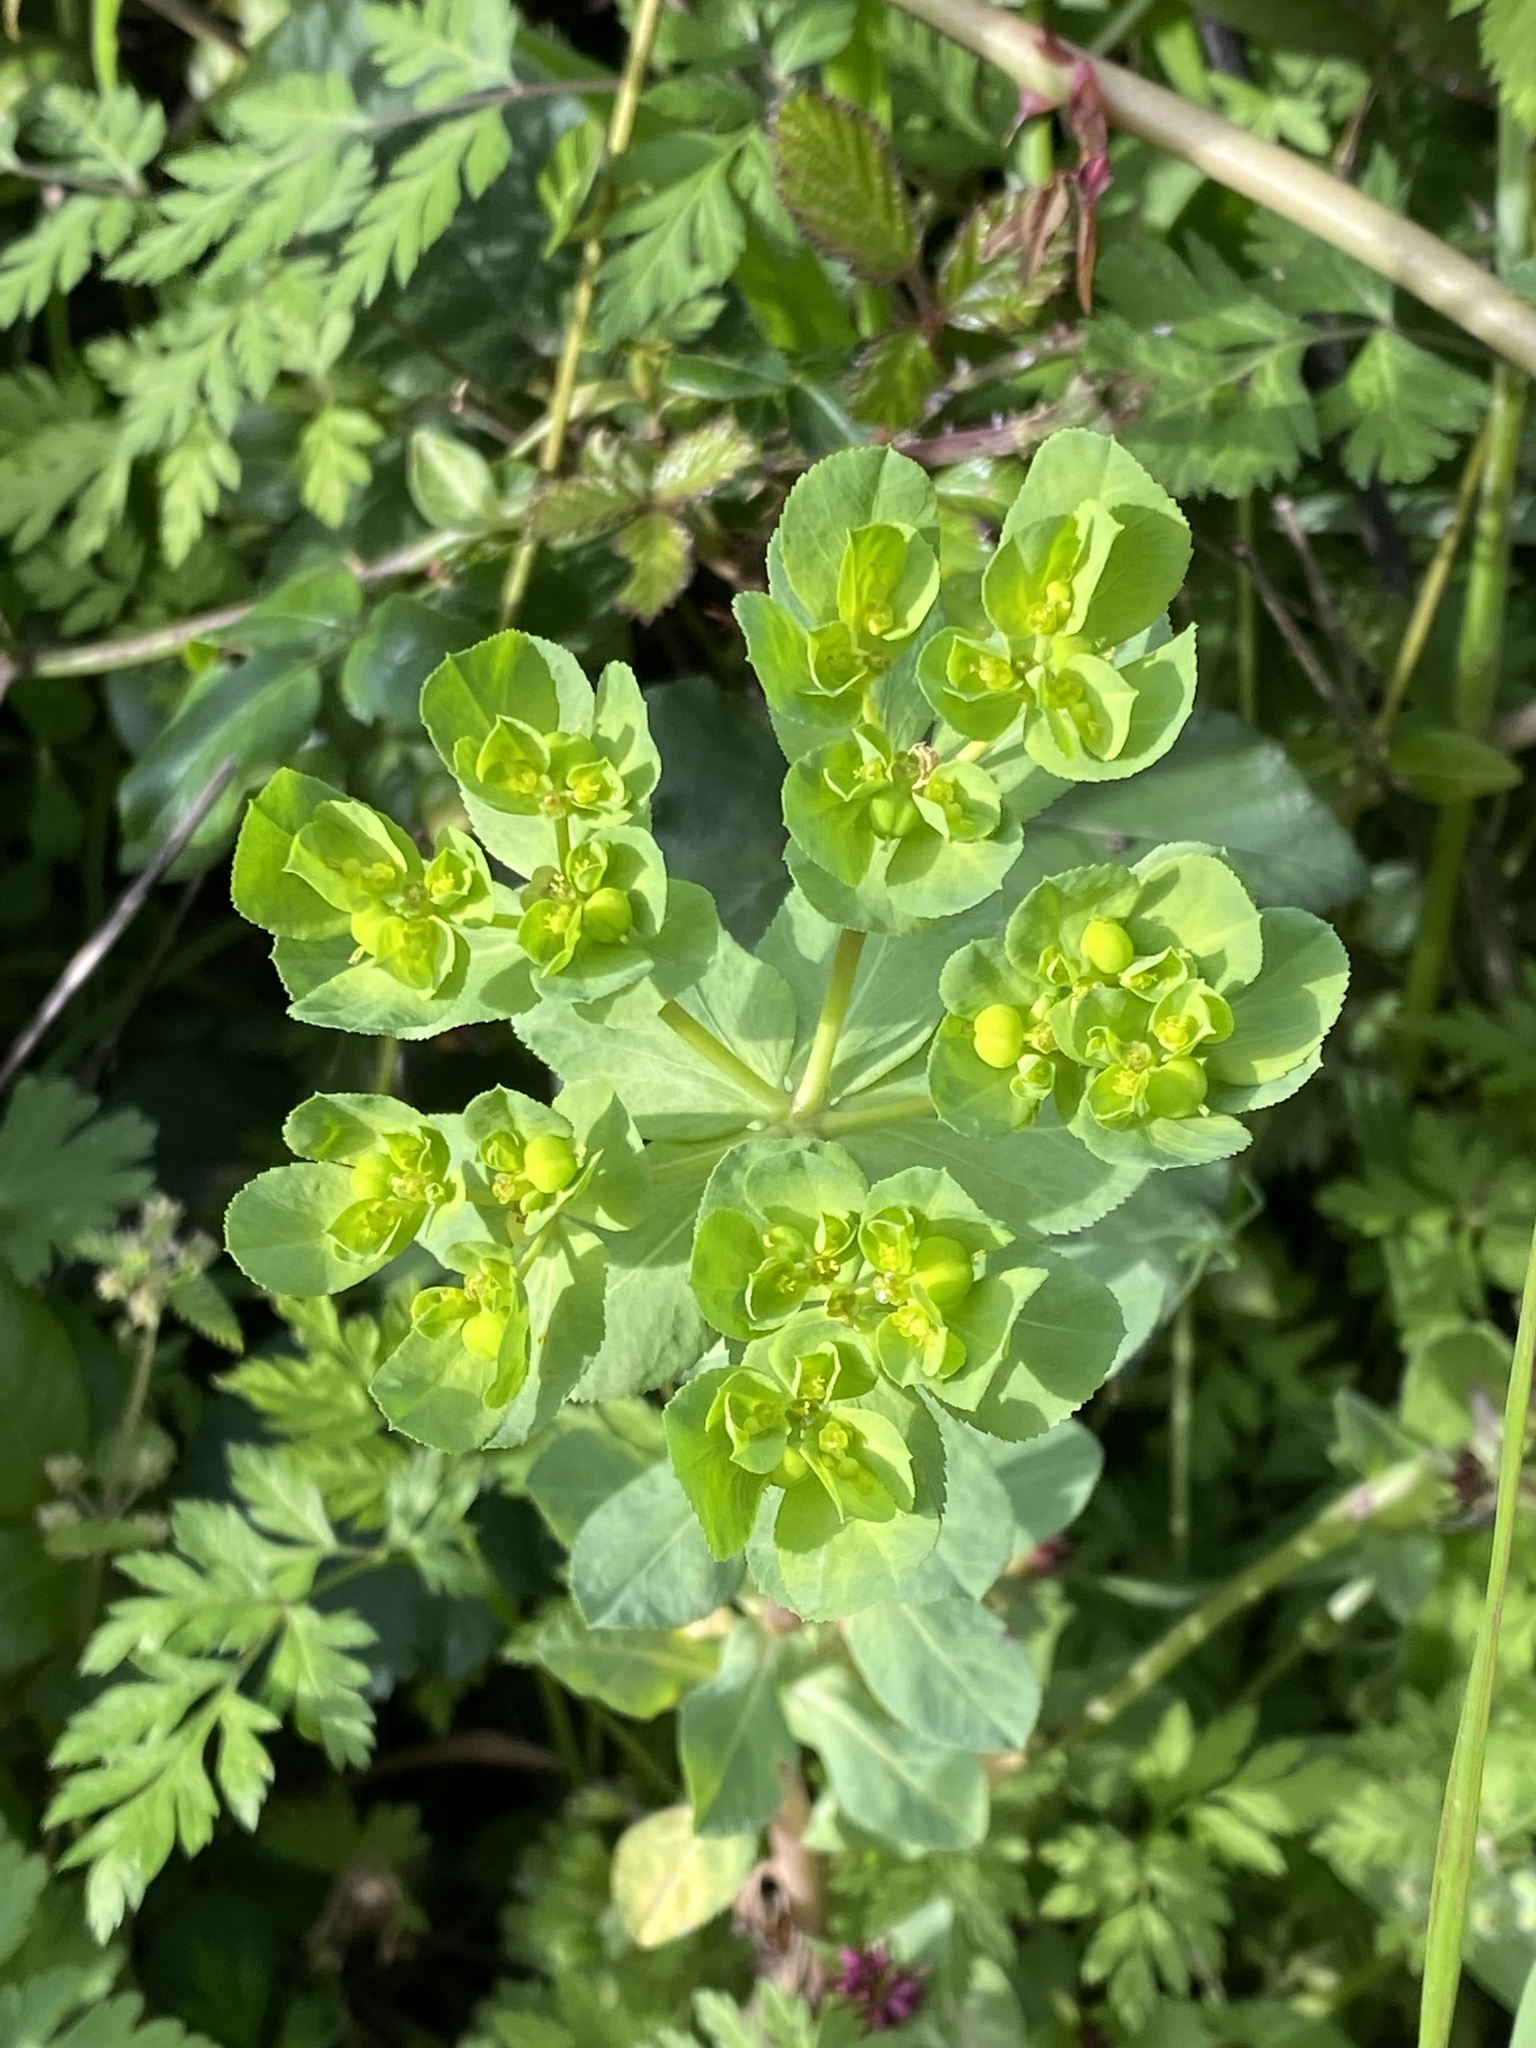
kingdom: Plantae
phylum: Tracheophyta
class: Magnoliopsida
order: Malpighiales
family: Euphorbiaceae
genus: Euphorbia
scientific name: Euphorbia helioscopia
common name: Sun spurge
